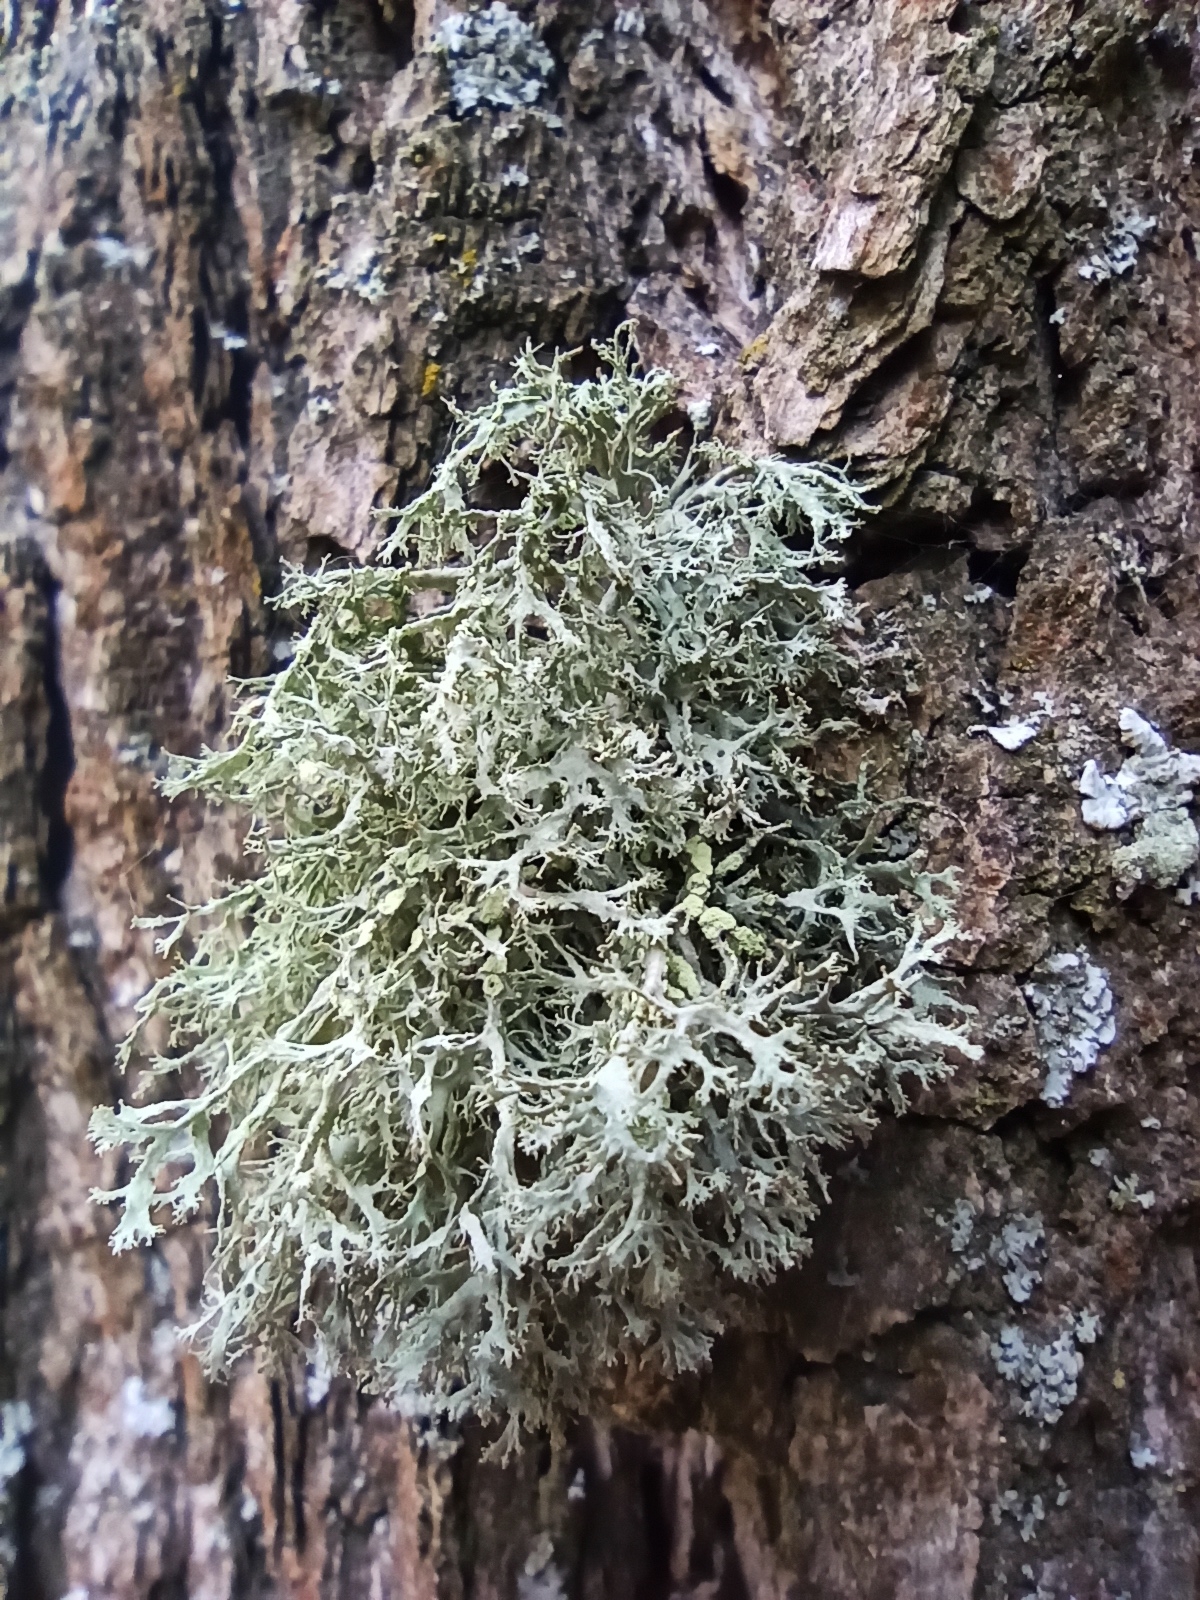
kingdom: Fungi
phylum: Ascomycota
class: Lecanoromycetes
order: Lecanorales
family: Ramalinaceae
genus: Ramalina
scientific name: Ramalina farinacea
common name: Farinose cartilage lichen
